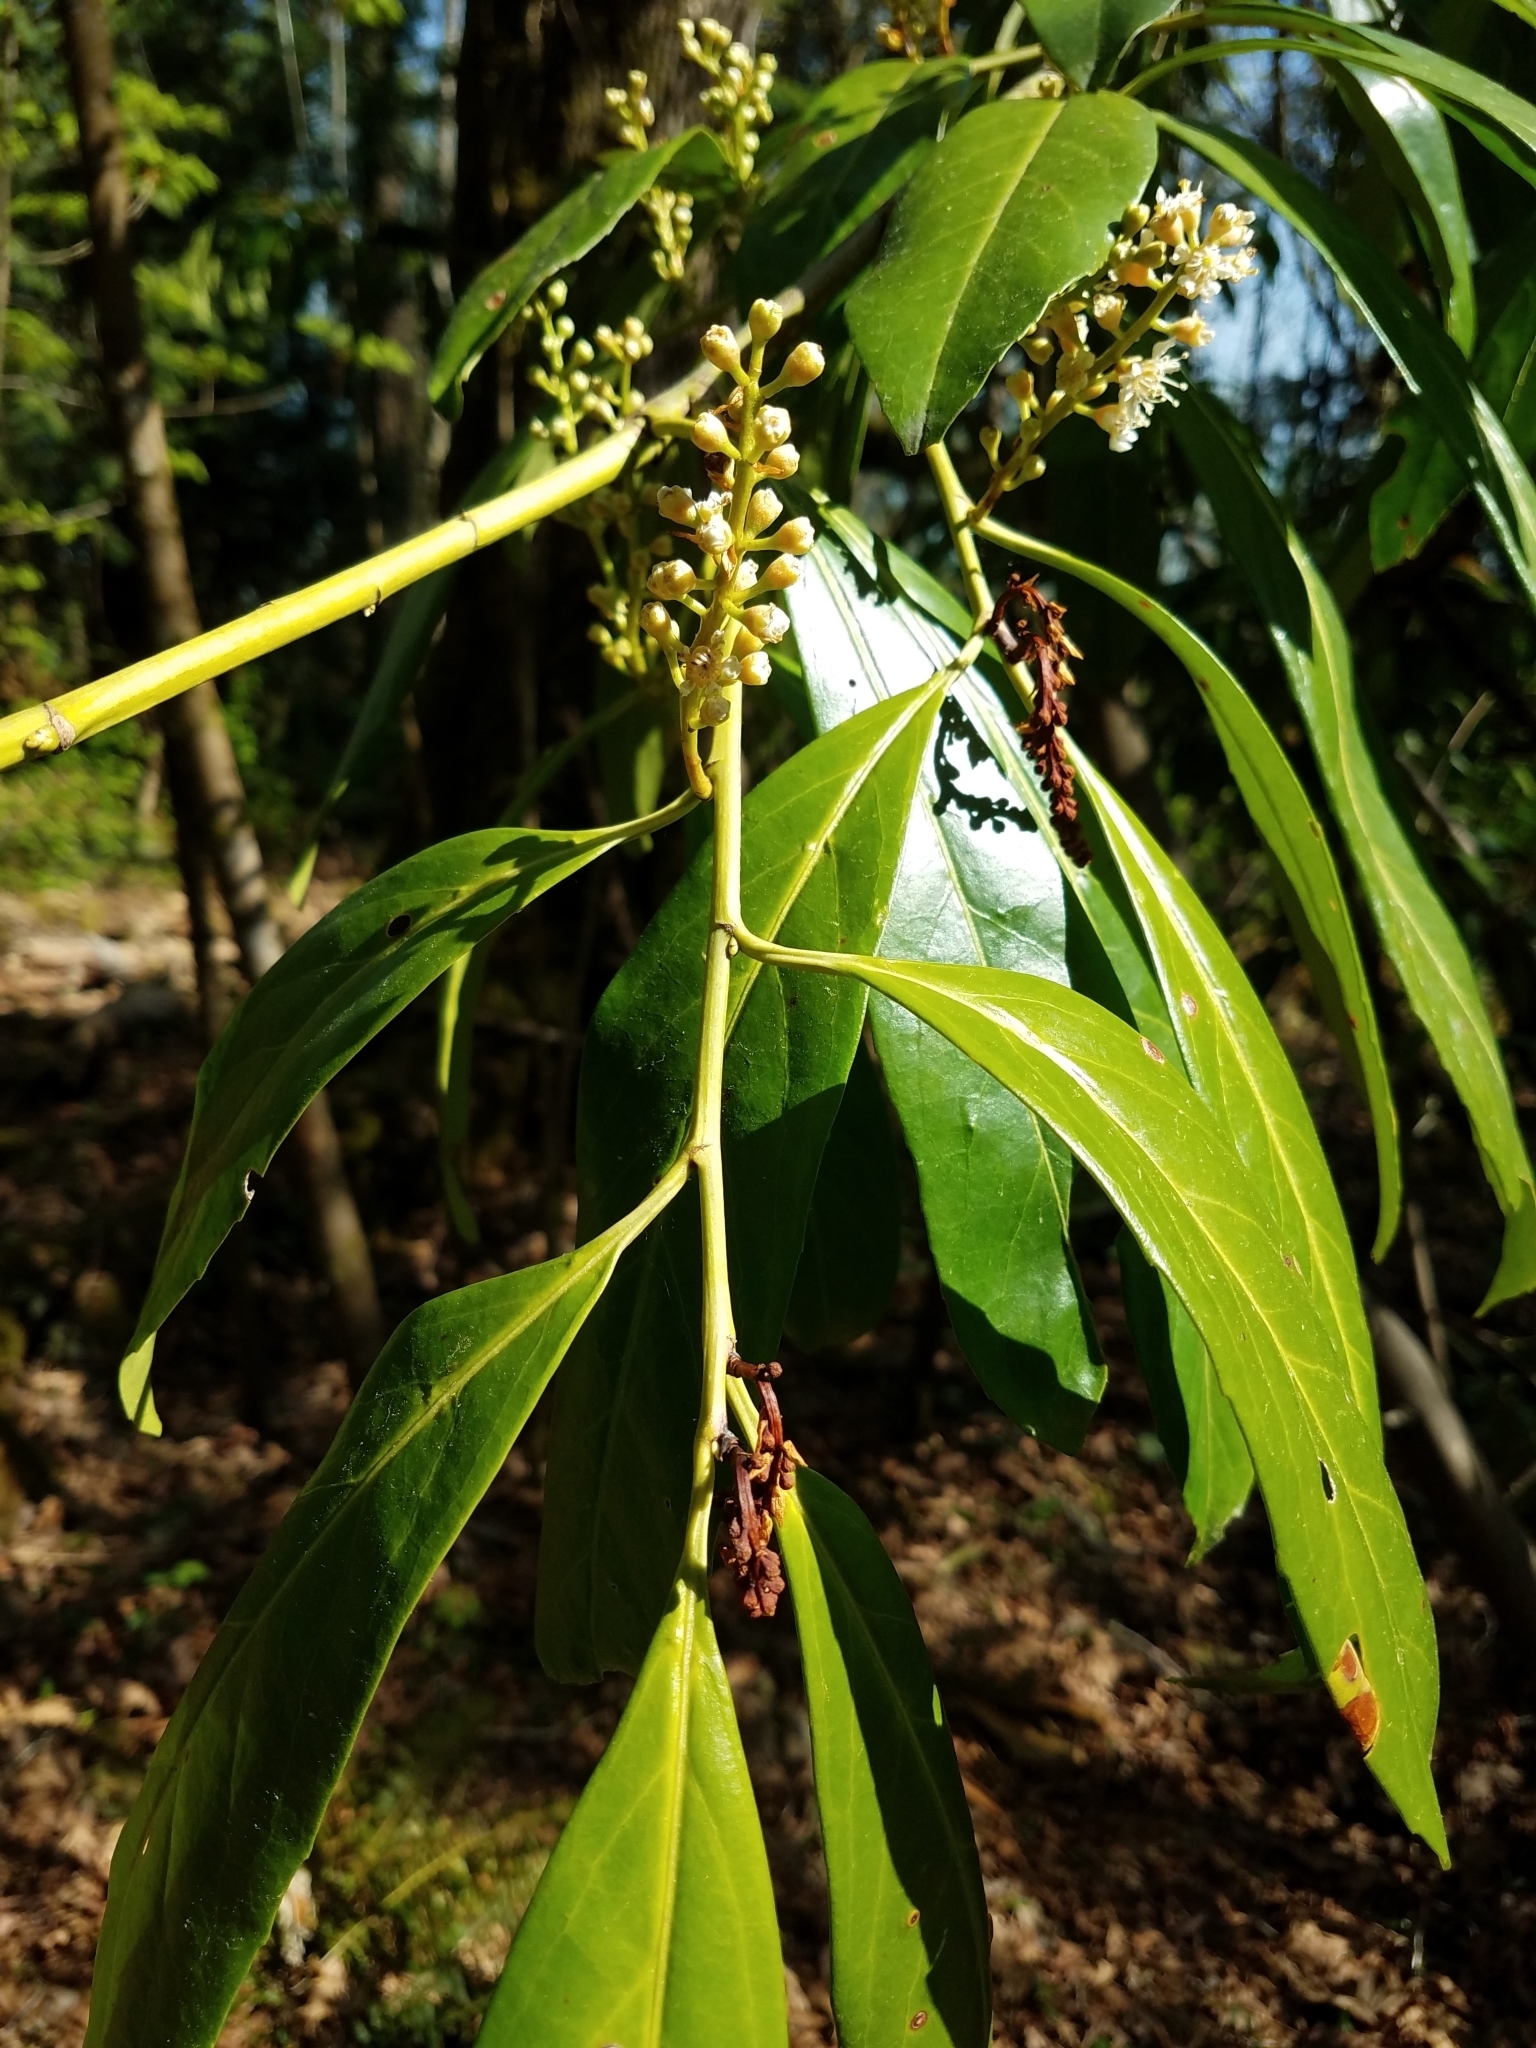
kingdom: Plantae
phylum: Tracheophyta
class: Magnoliopsida
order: Rosales
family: Rosaceae
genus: Prunus
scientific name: Prunus laurocerasus
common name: Cherry laurel
